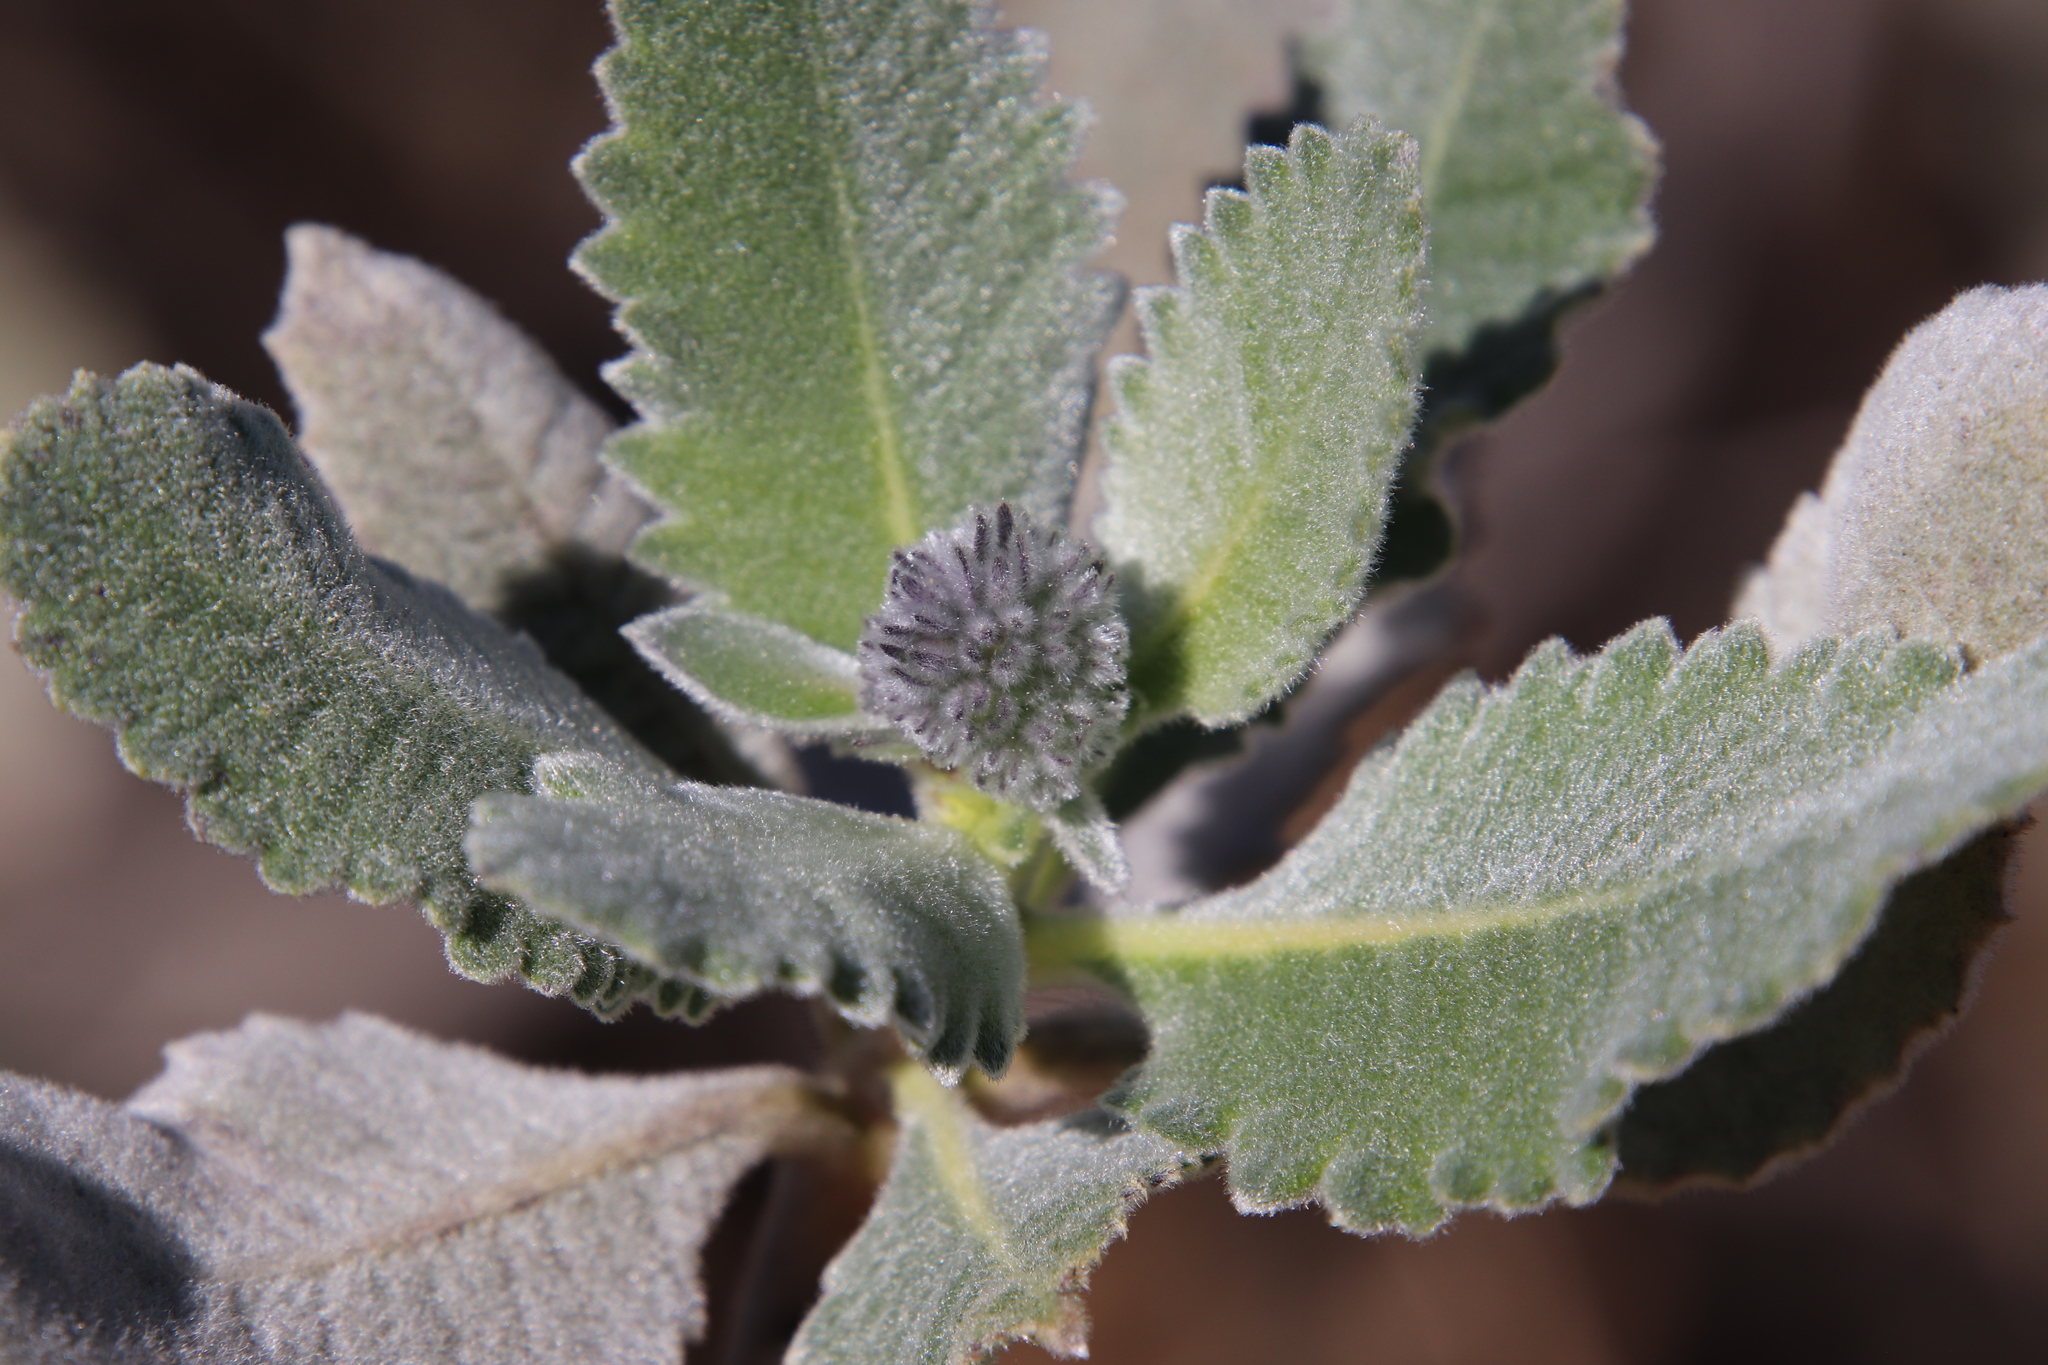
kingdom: Plantae
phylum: Tracheophyta
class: Magnoliopsida
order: Boraginales
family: Namaceae
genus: Eriodictyon
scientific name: Eriodictyon crassifolium
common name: Thick-leaf yerba-santa
